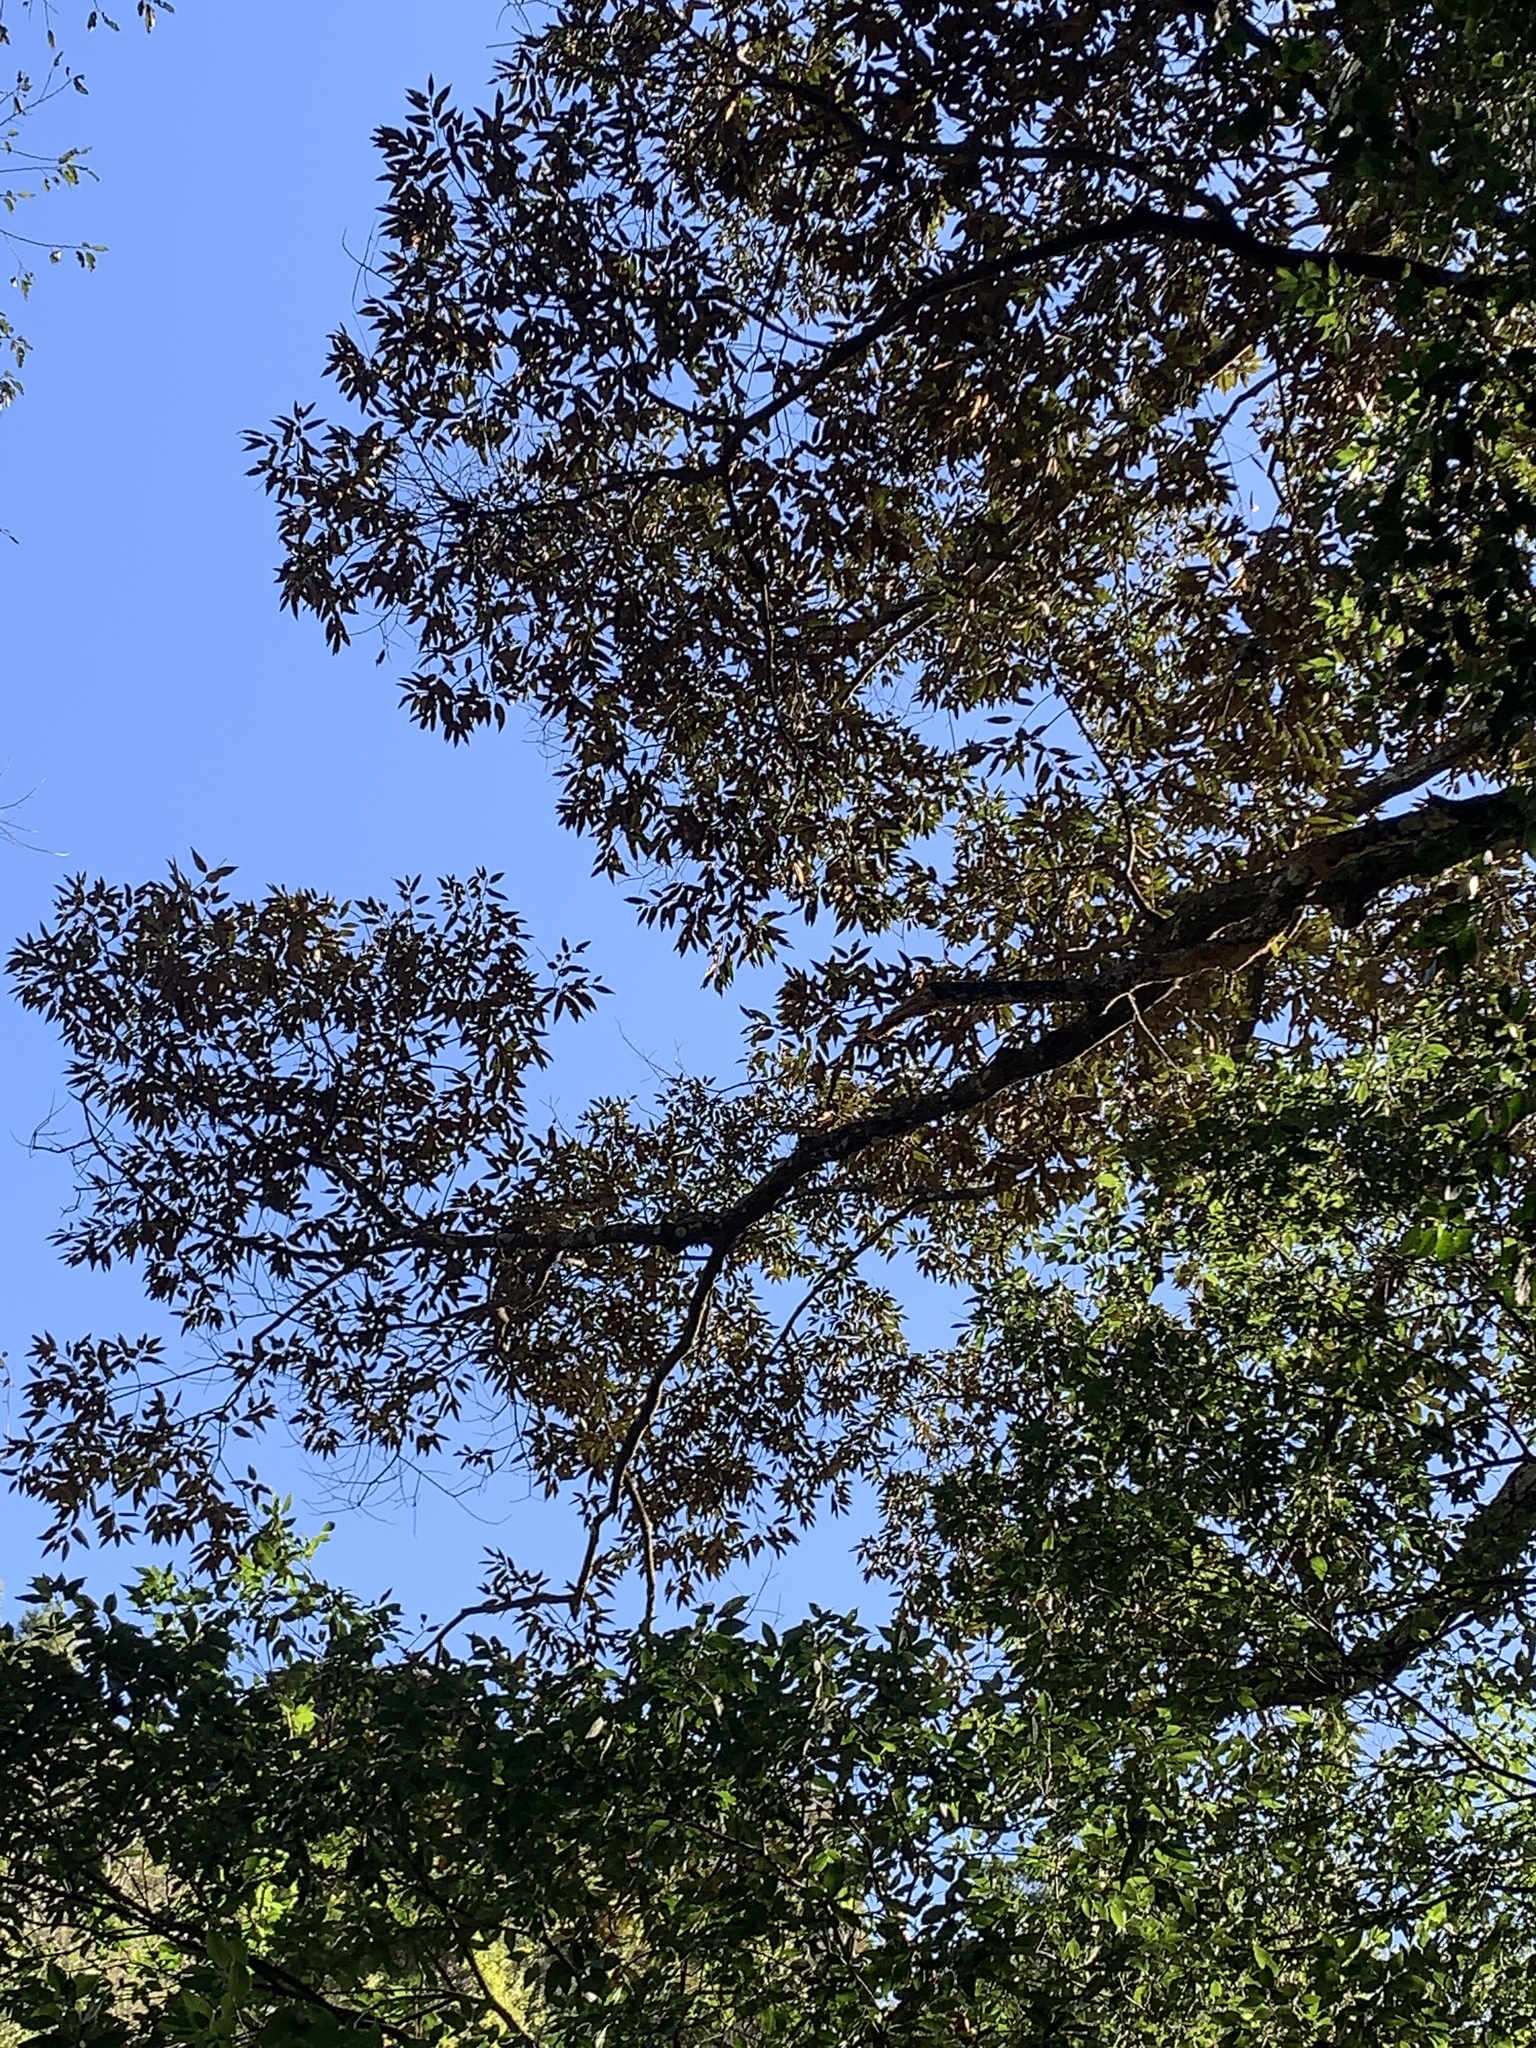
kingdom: Plantae
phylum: Tracheophyta
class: Magnoliopsida
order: Fagales
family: Fagaceae
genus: Castanopsis
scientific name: Castanopsis fargesii
